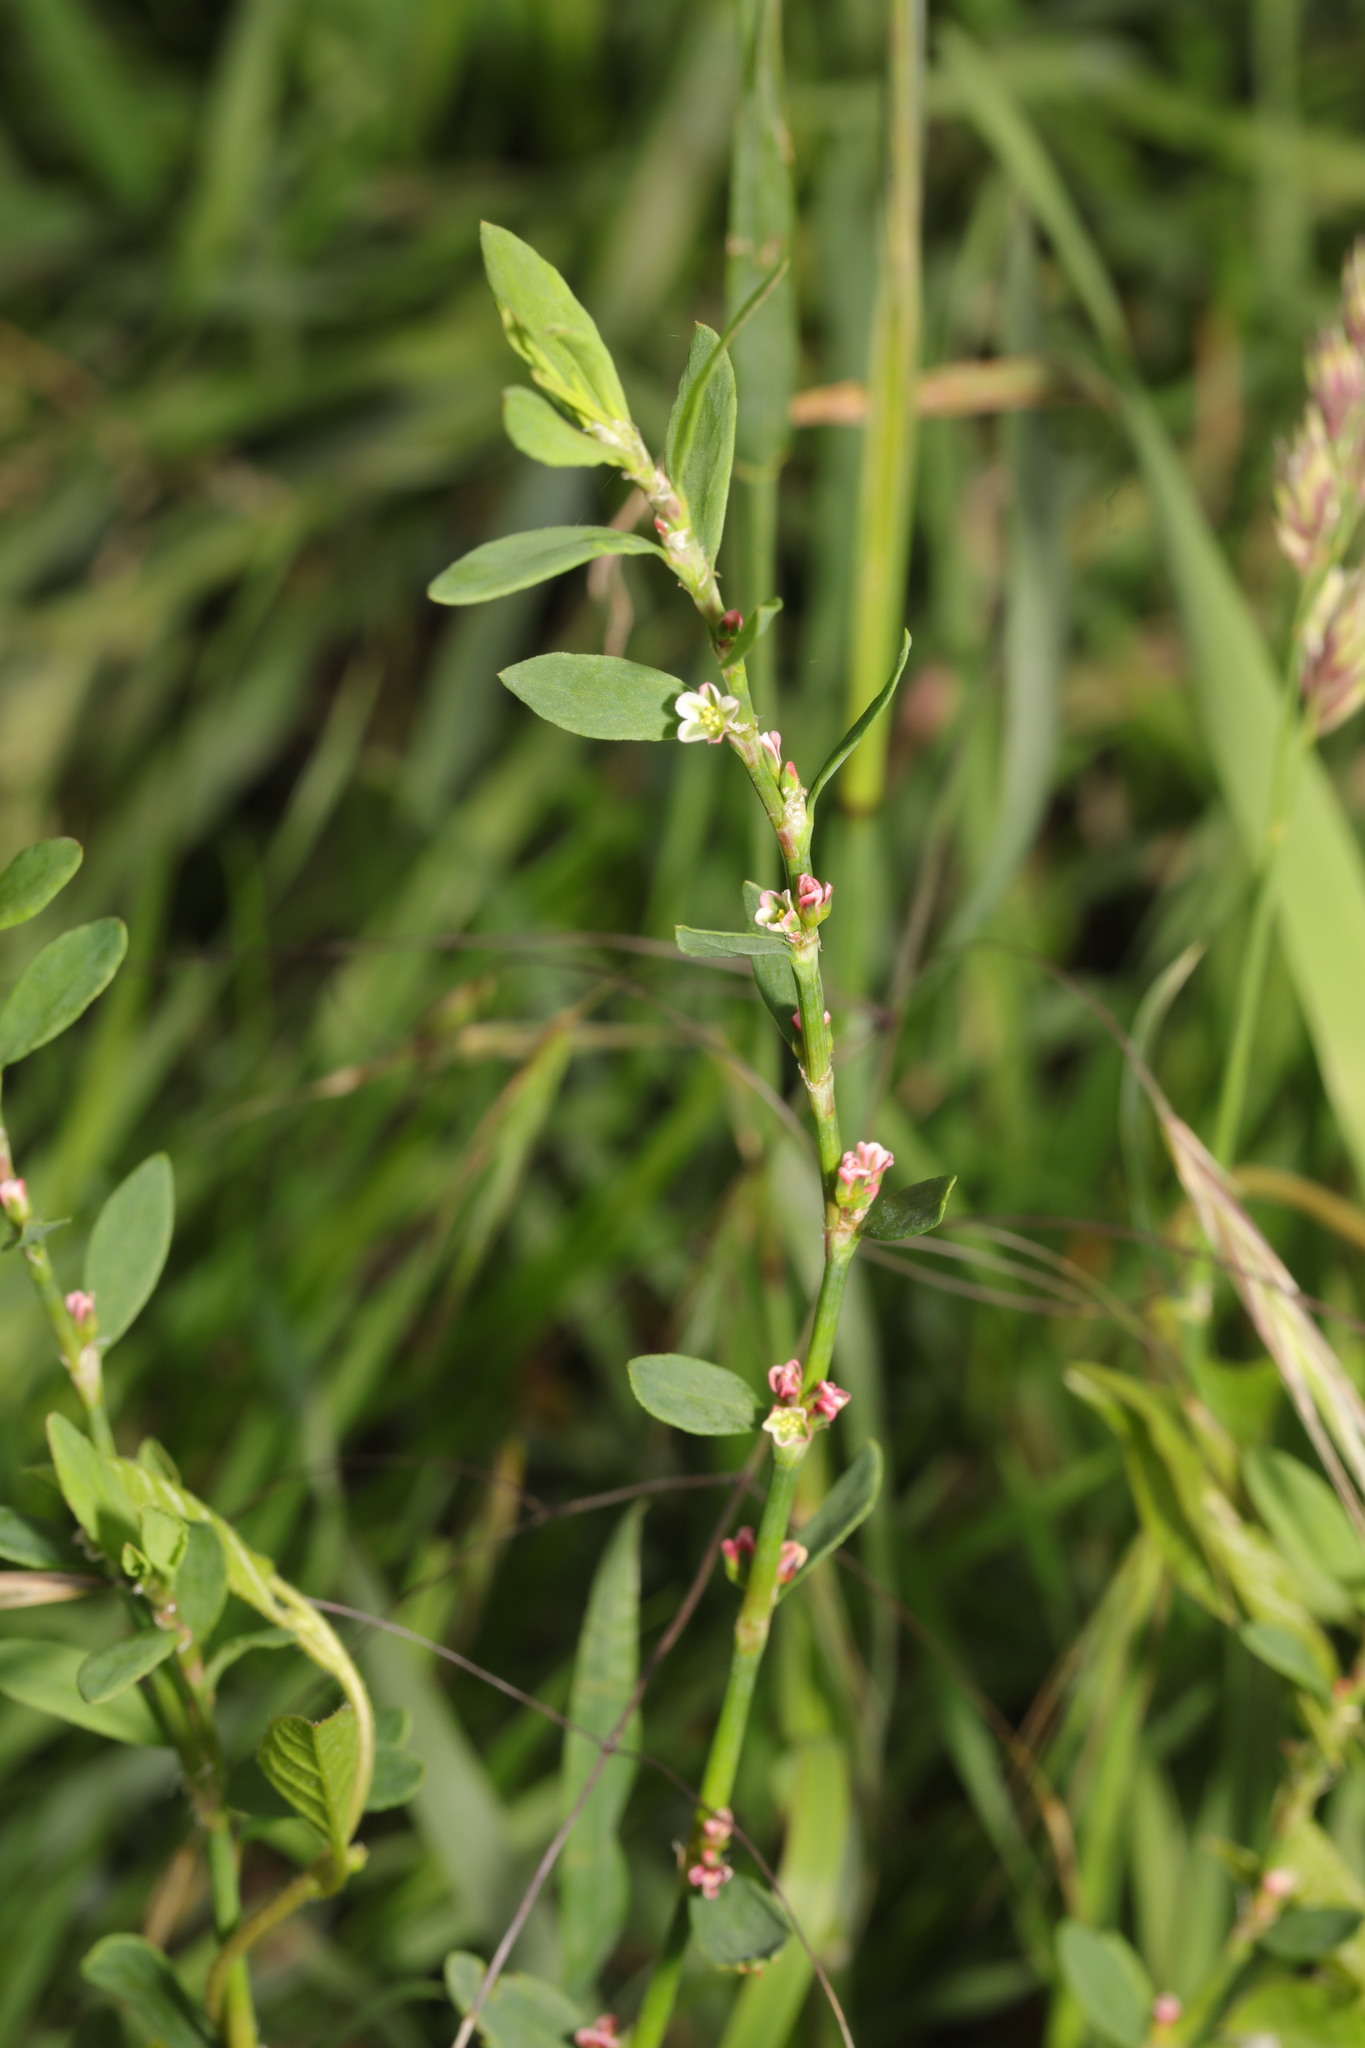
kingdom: Plantae
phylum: Tracheophyta
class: Magnoliopsida
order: Caryophyllales
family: Polygonaceae
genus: Polygonum
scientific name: Polygonum aviculare
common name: Prostrate knotweed
